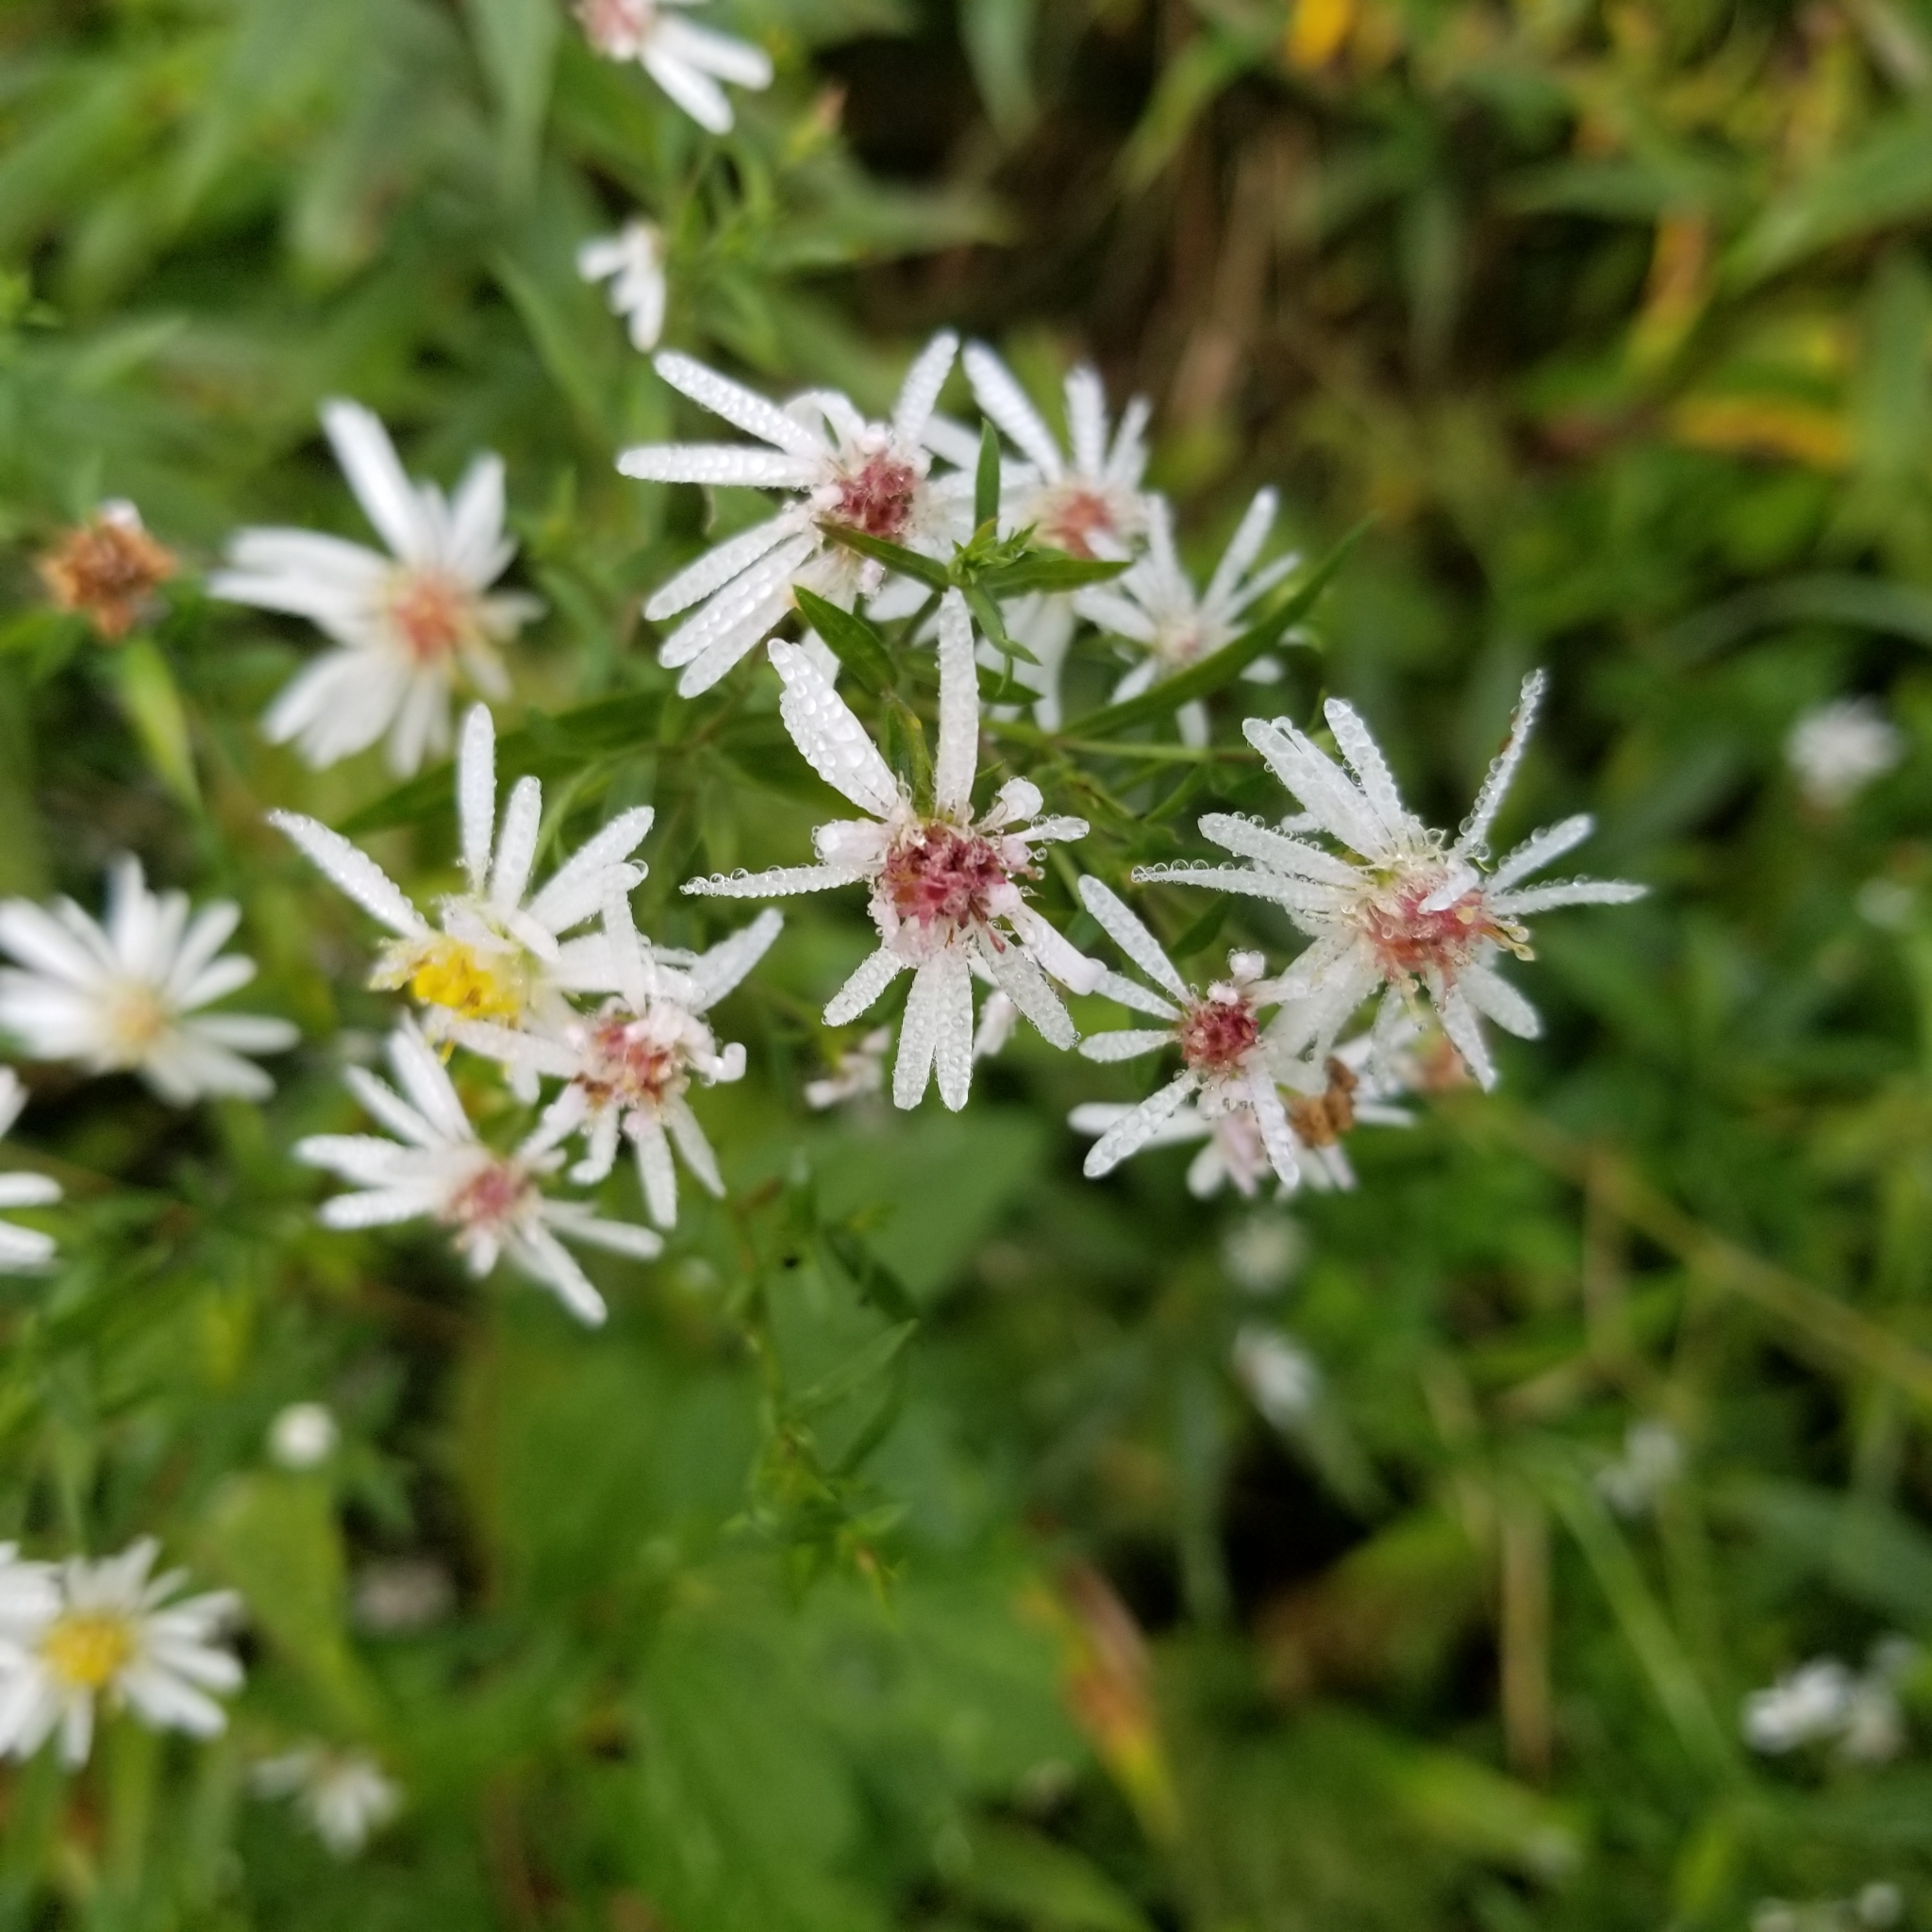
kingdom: Plantae
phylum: Tracheophyta
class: Magnoliopsida
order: Asterales
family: Asteraceae
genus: Symphyotrichum
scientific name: Symphyotrichum lateriflorum
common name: Calico aster
